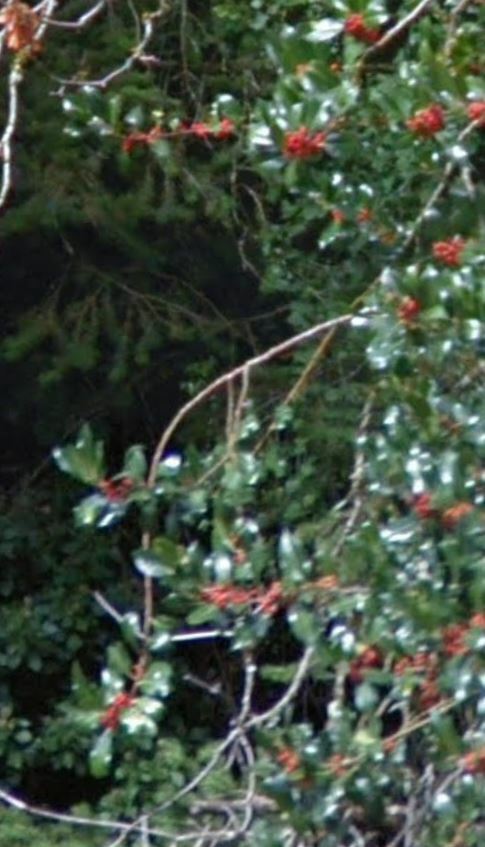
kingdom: Plantae
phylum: Tracheophyta
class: Magnoliopsida
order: Aquifoliales
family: Aquifoliaceae
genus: Ilex
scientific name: Ilex aquifolium
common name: English holly
